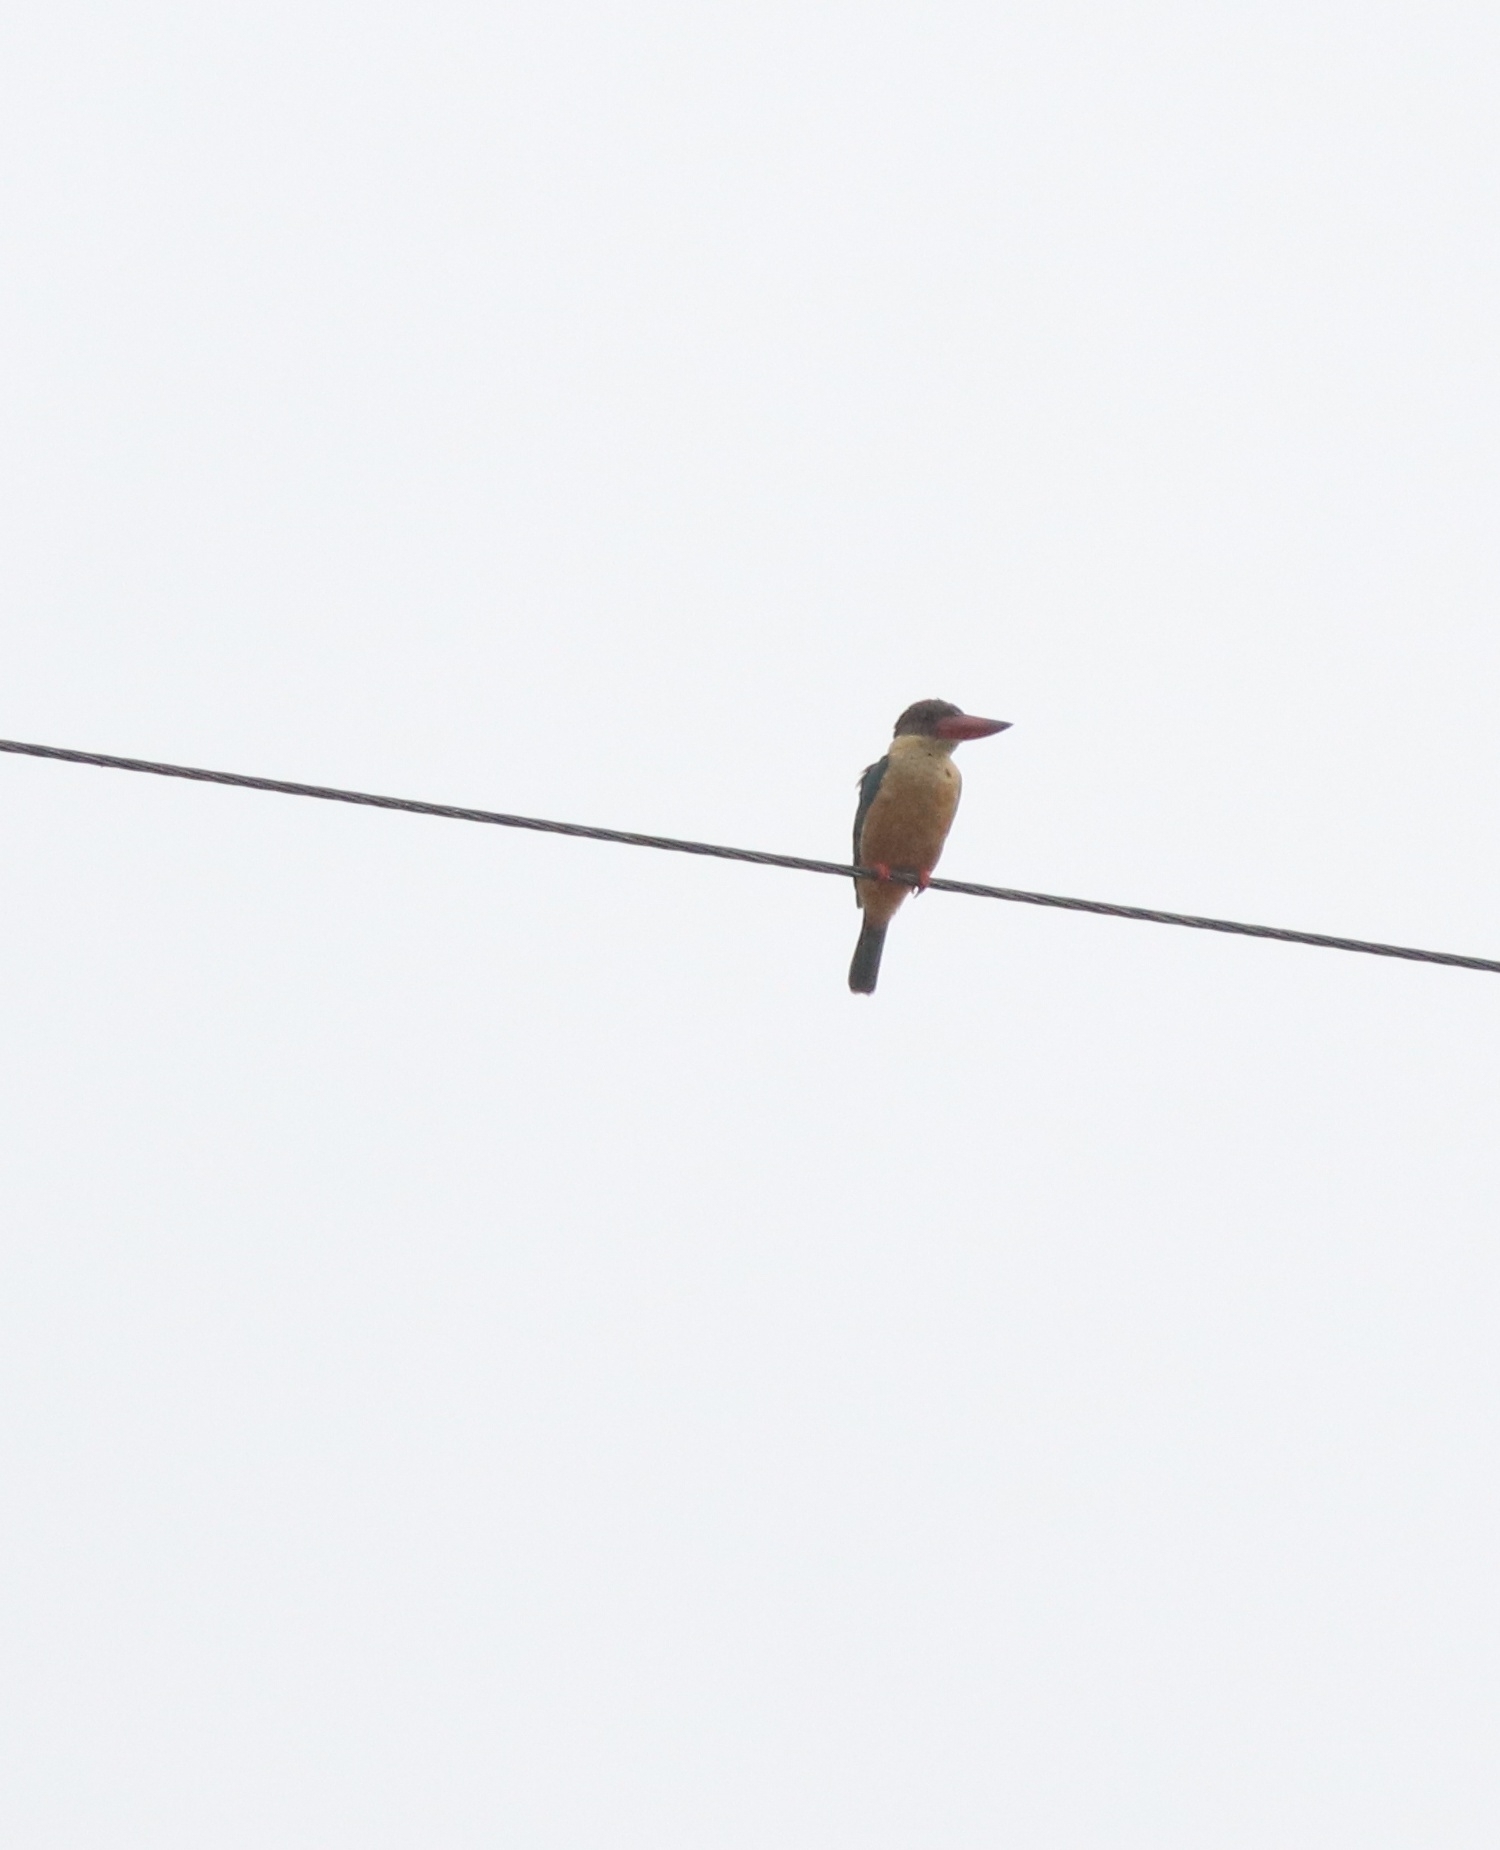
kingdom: Animalia
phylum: Chordata
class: Aves
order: Coraciiformes
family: Alcedinidae
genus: Pelargopsis
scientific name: Pelargopsis capensis
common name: Stork-billed kingfisher
